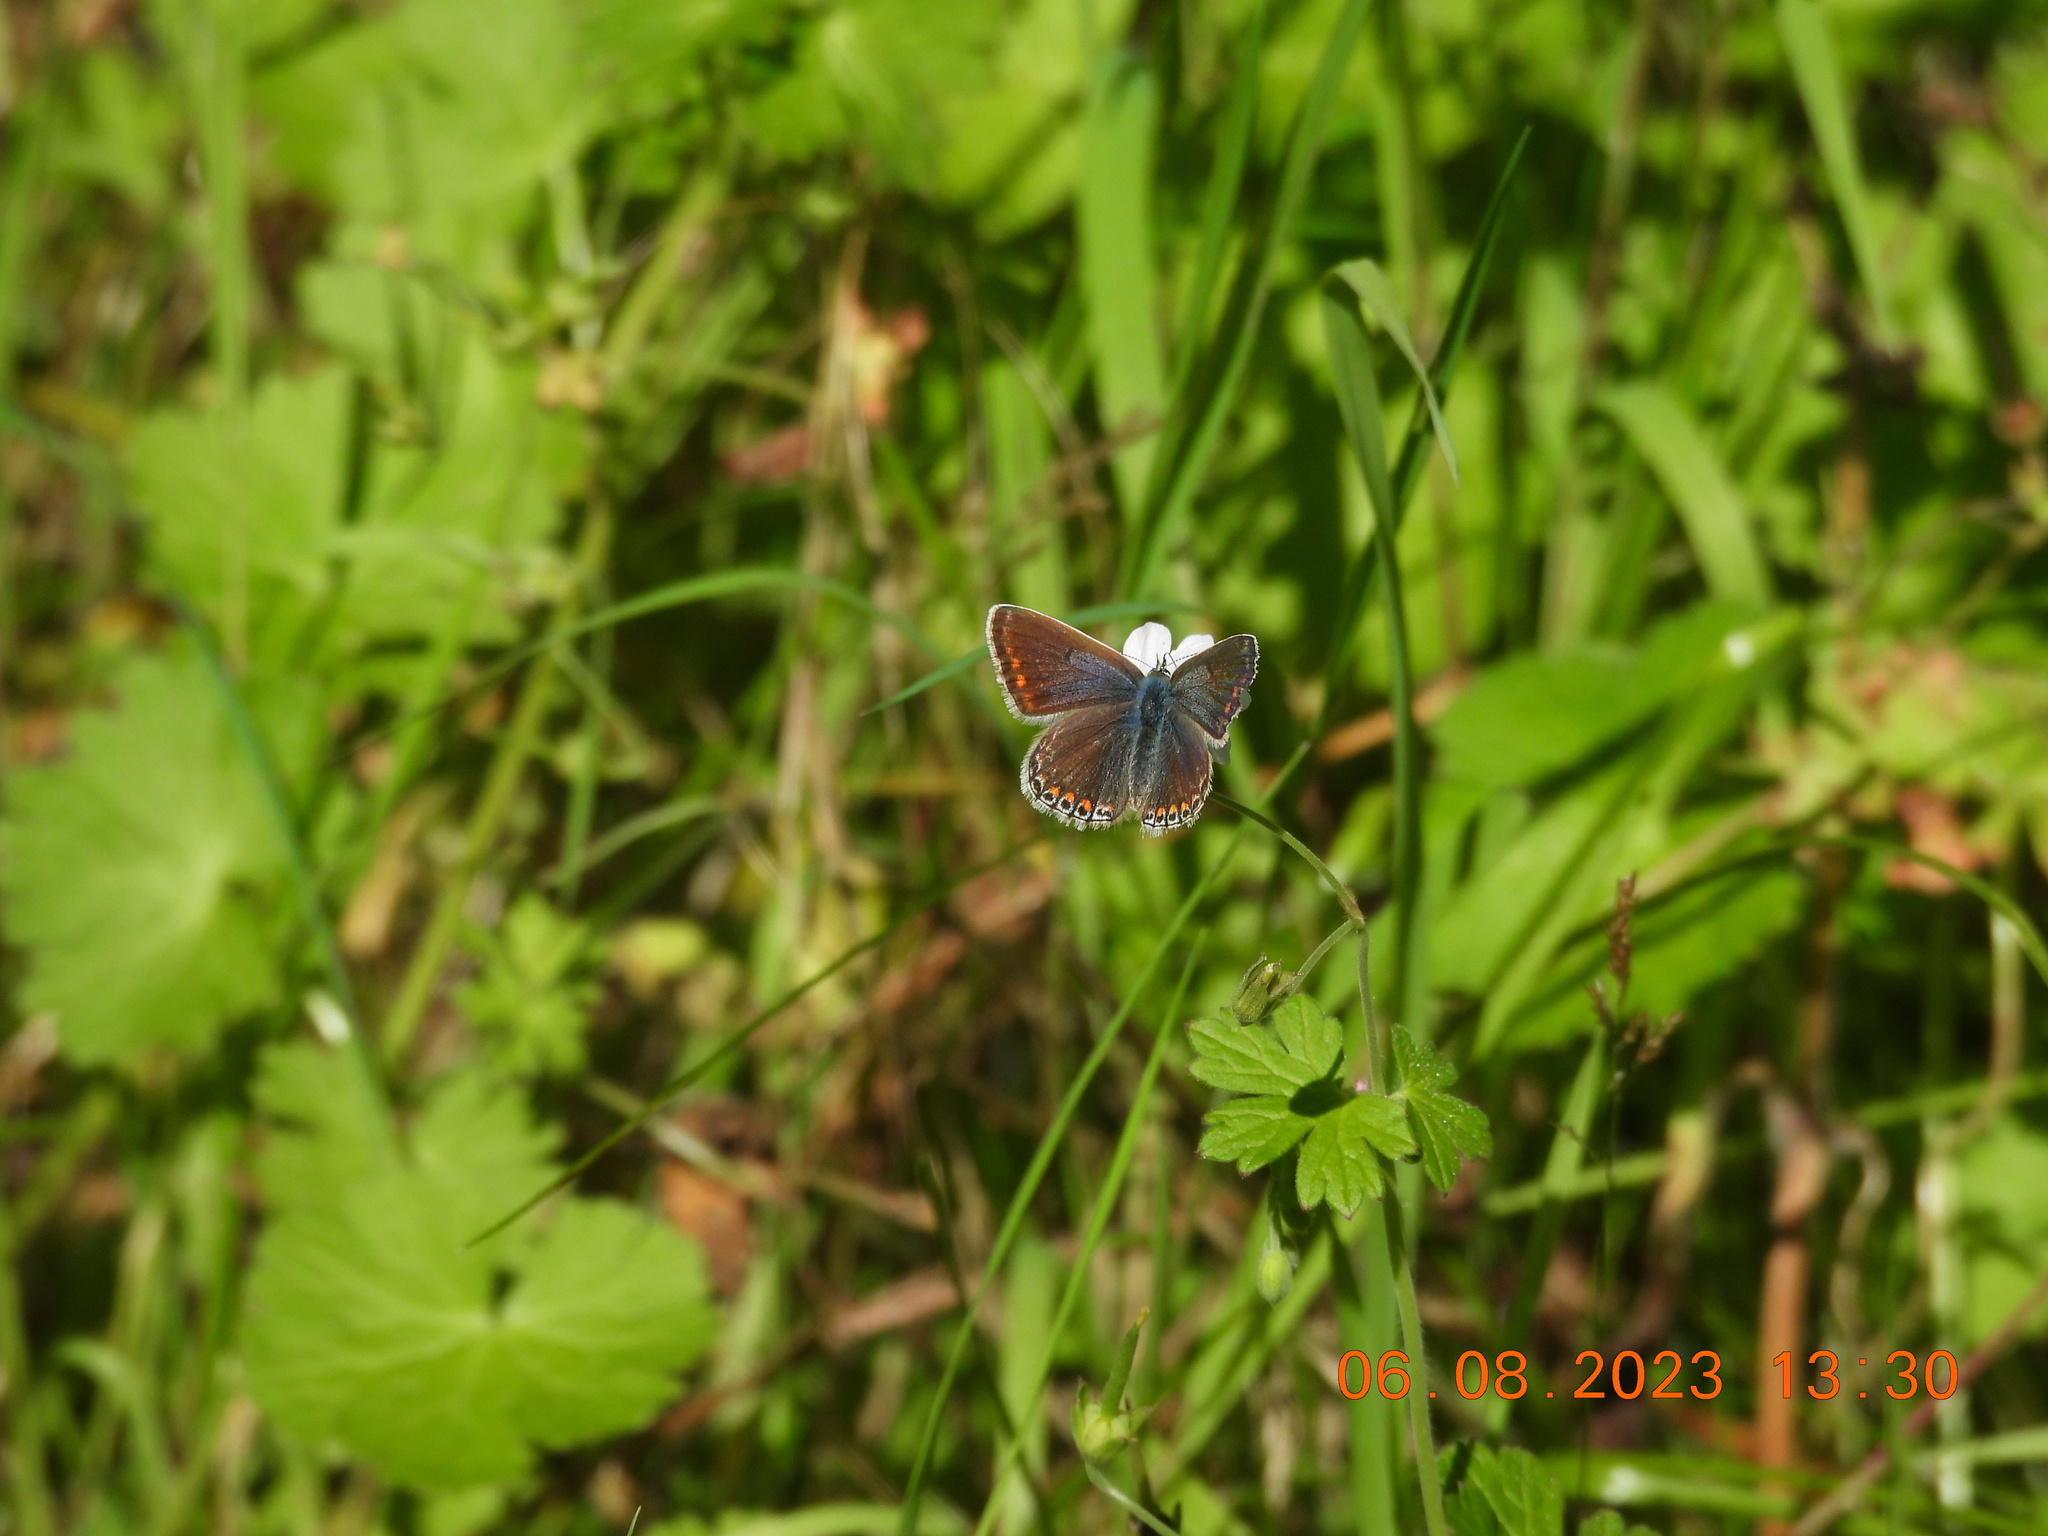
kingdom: Animalia
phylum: Arthropoda
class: Insecta
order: Lepidoptera
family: Lycaenidae
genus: Polyommatus
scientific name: Polyommatus icarus
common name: Common blue
